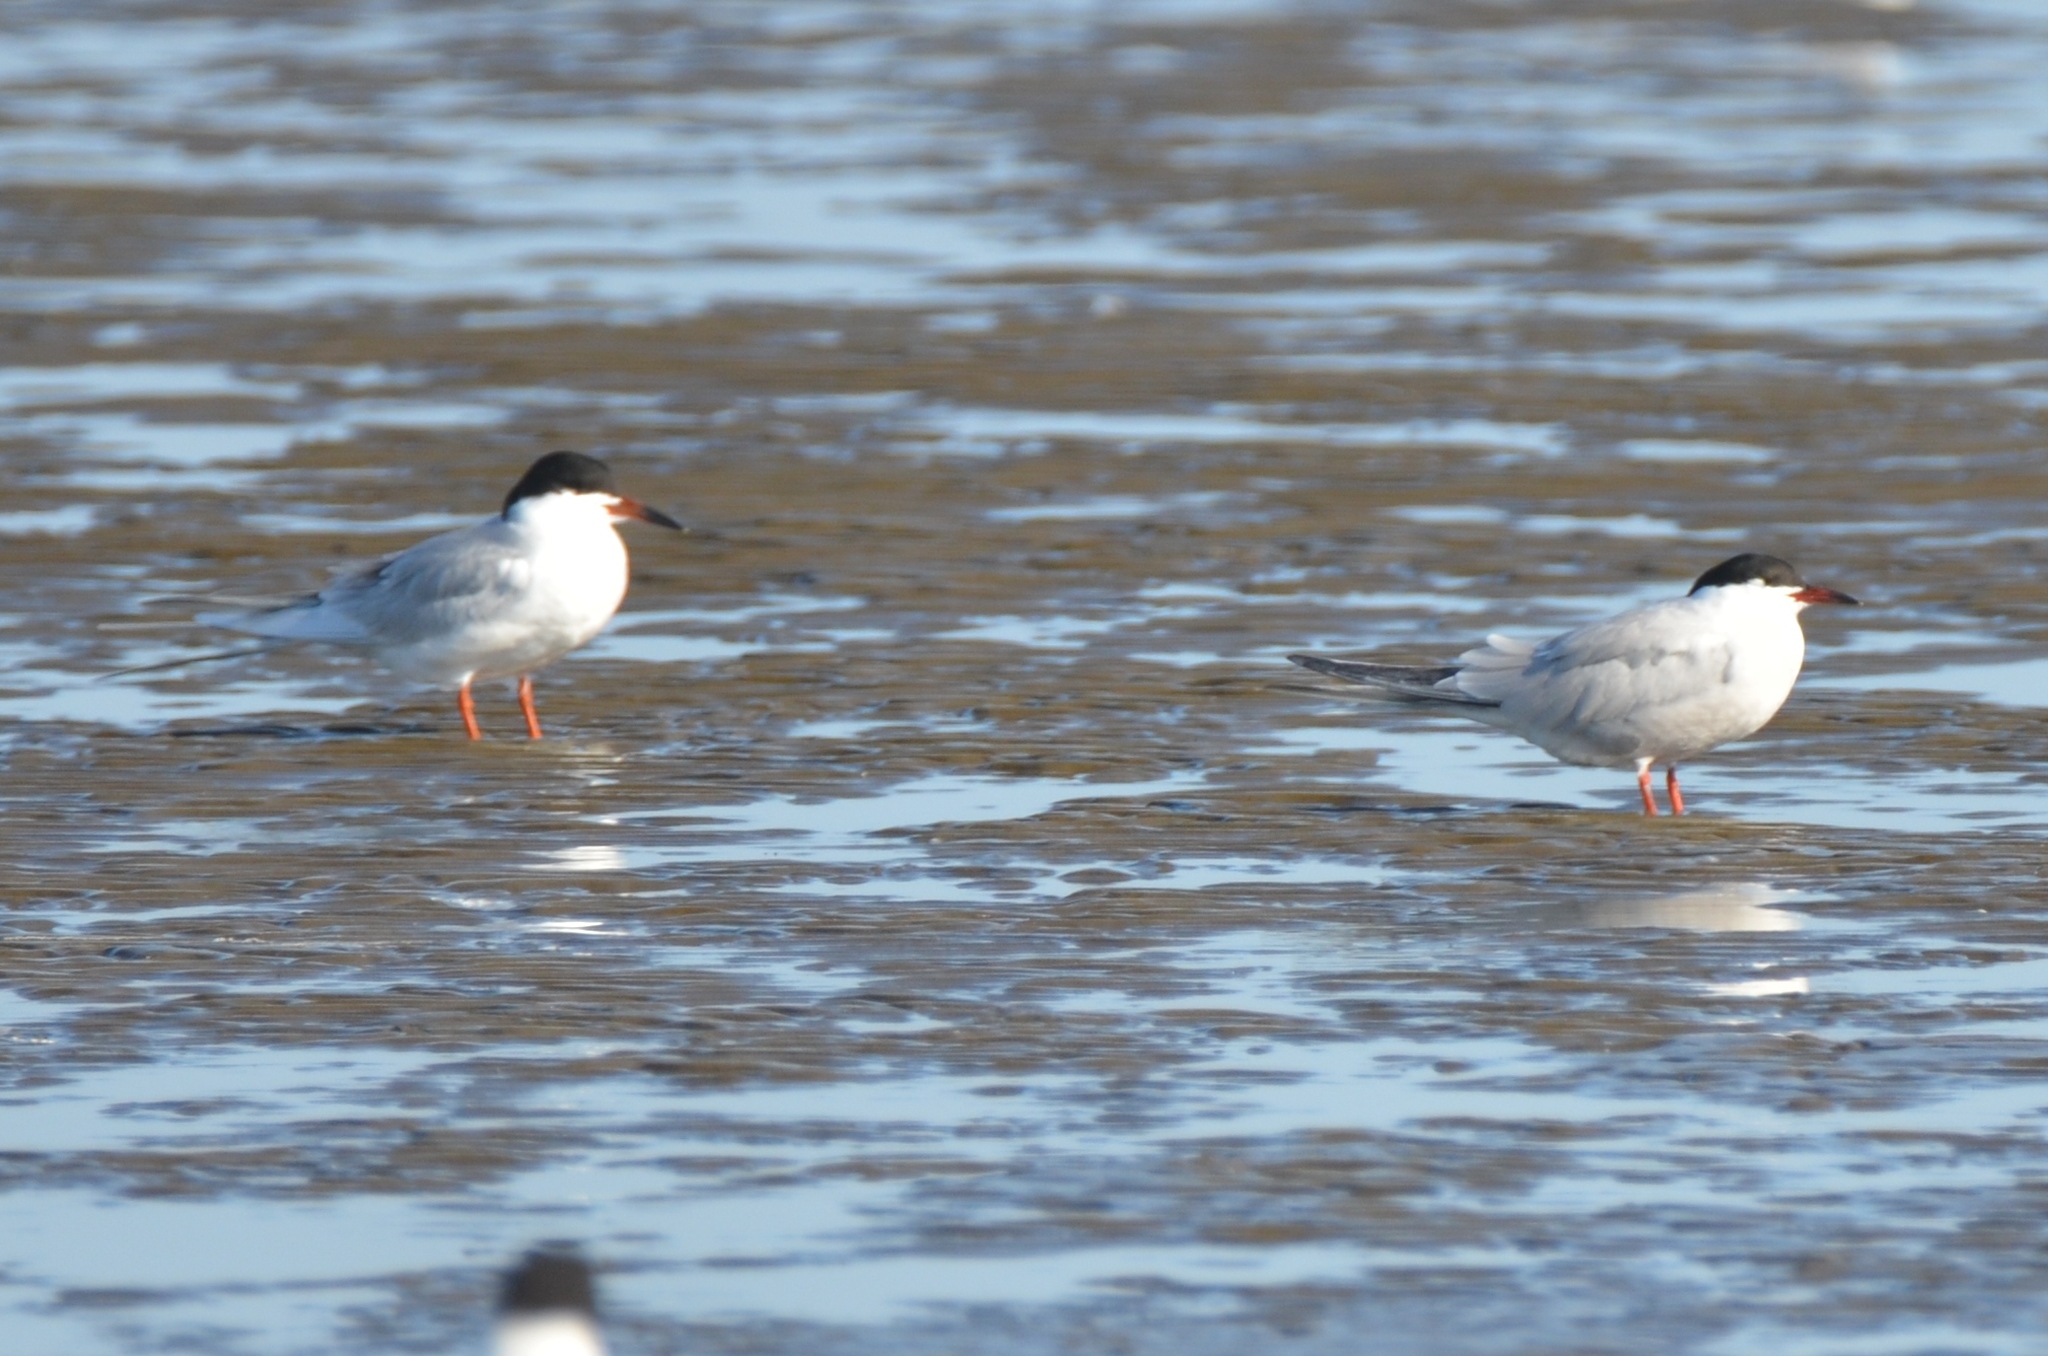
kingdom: Animalia
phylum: Chordata
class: Aves
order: Charadriiformes
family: Laridae
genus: Sterna
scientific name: Sterna hirundo
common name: Common tern
